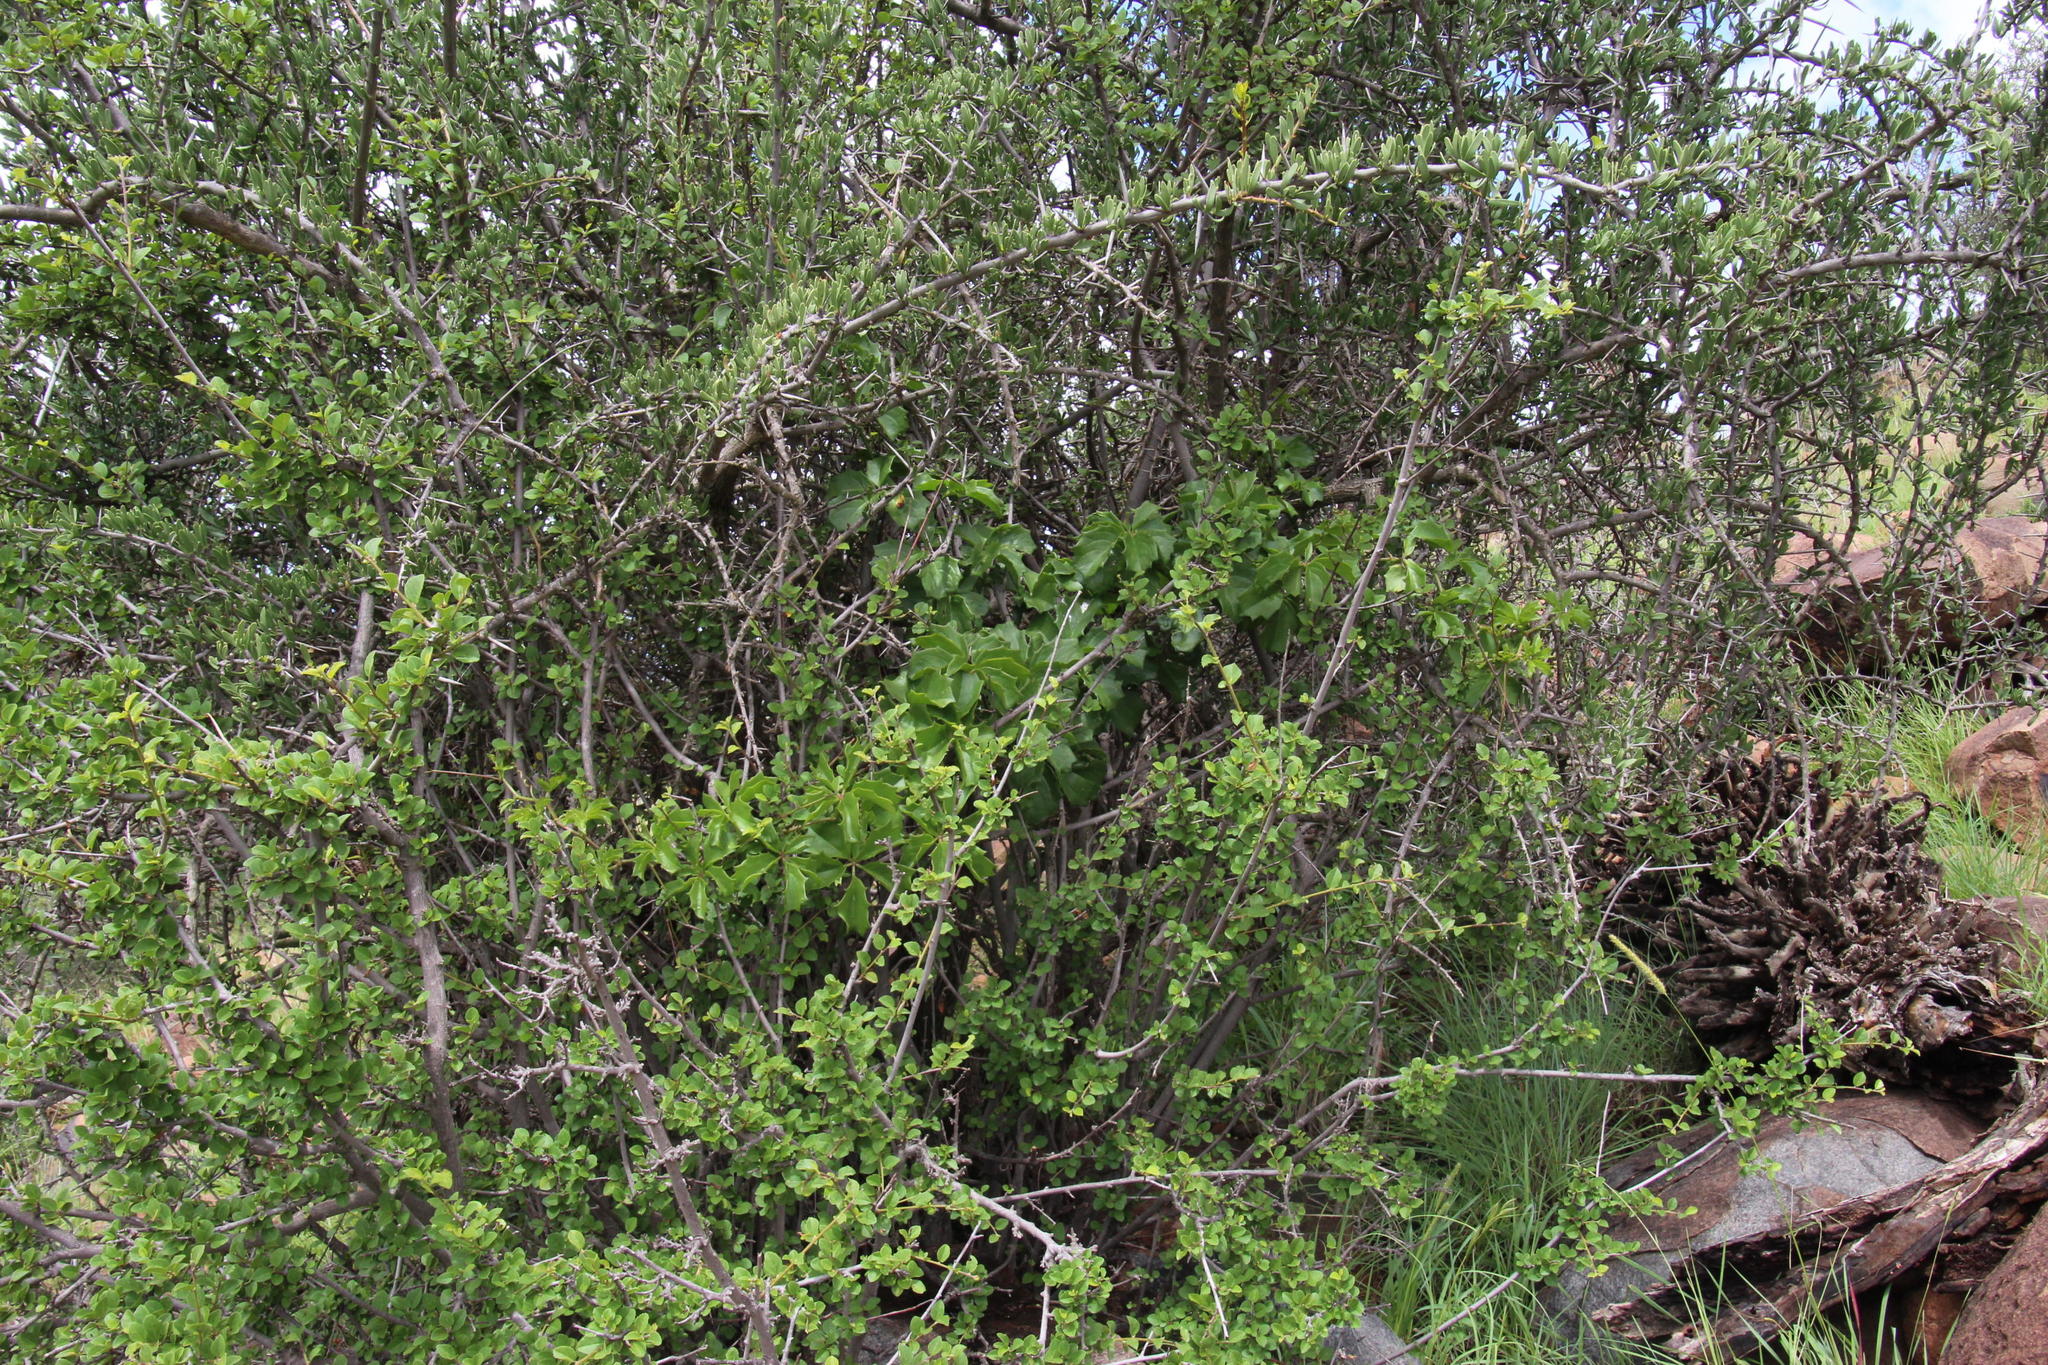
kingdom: Plantae
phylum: Tracheophyta
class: Magnoliopsida
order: Vitales
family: Vitaceae
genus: Cyphostemma
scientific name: Cyphostemma quinatum
